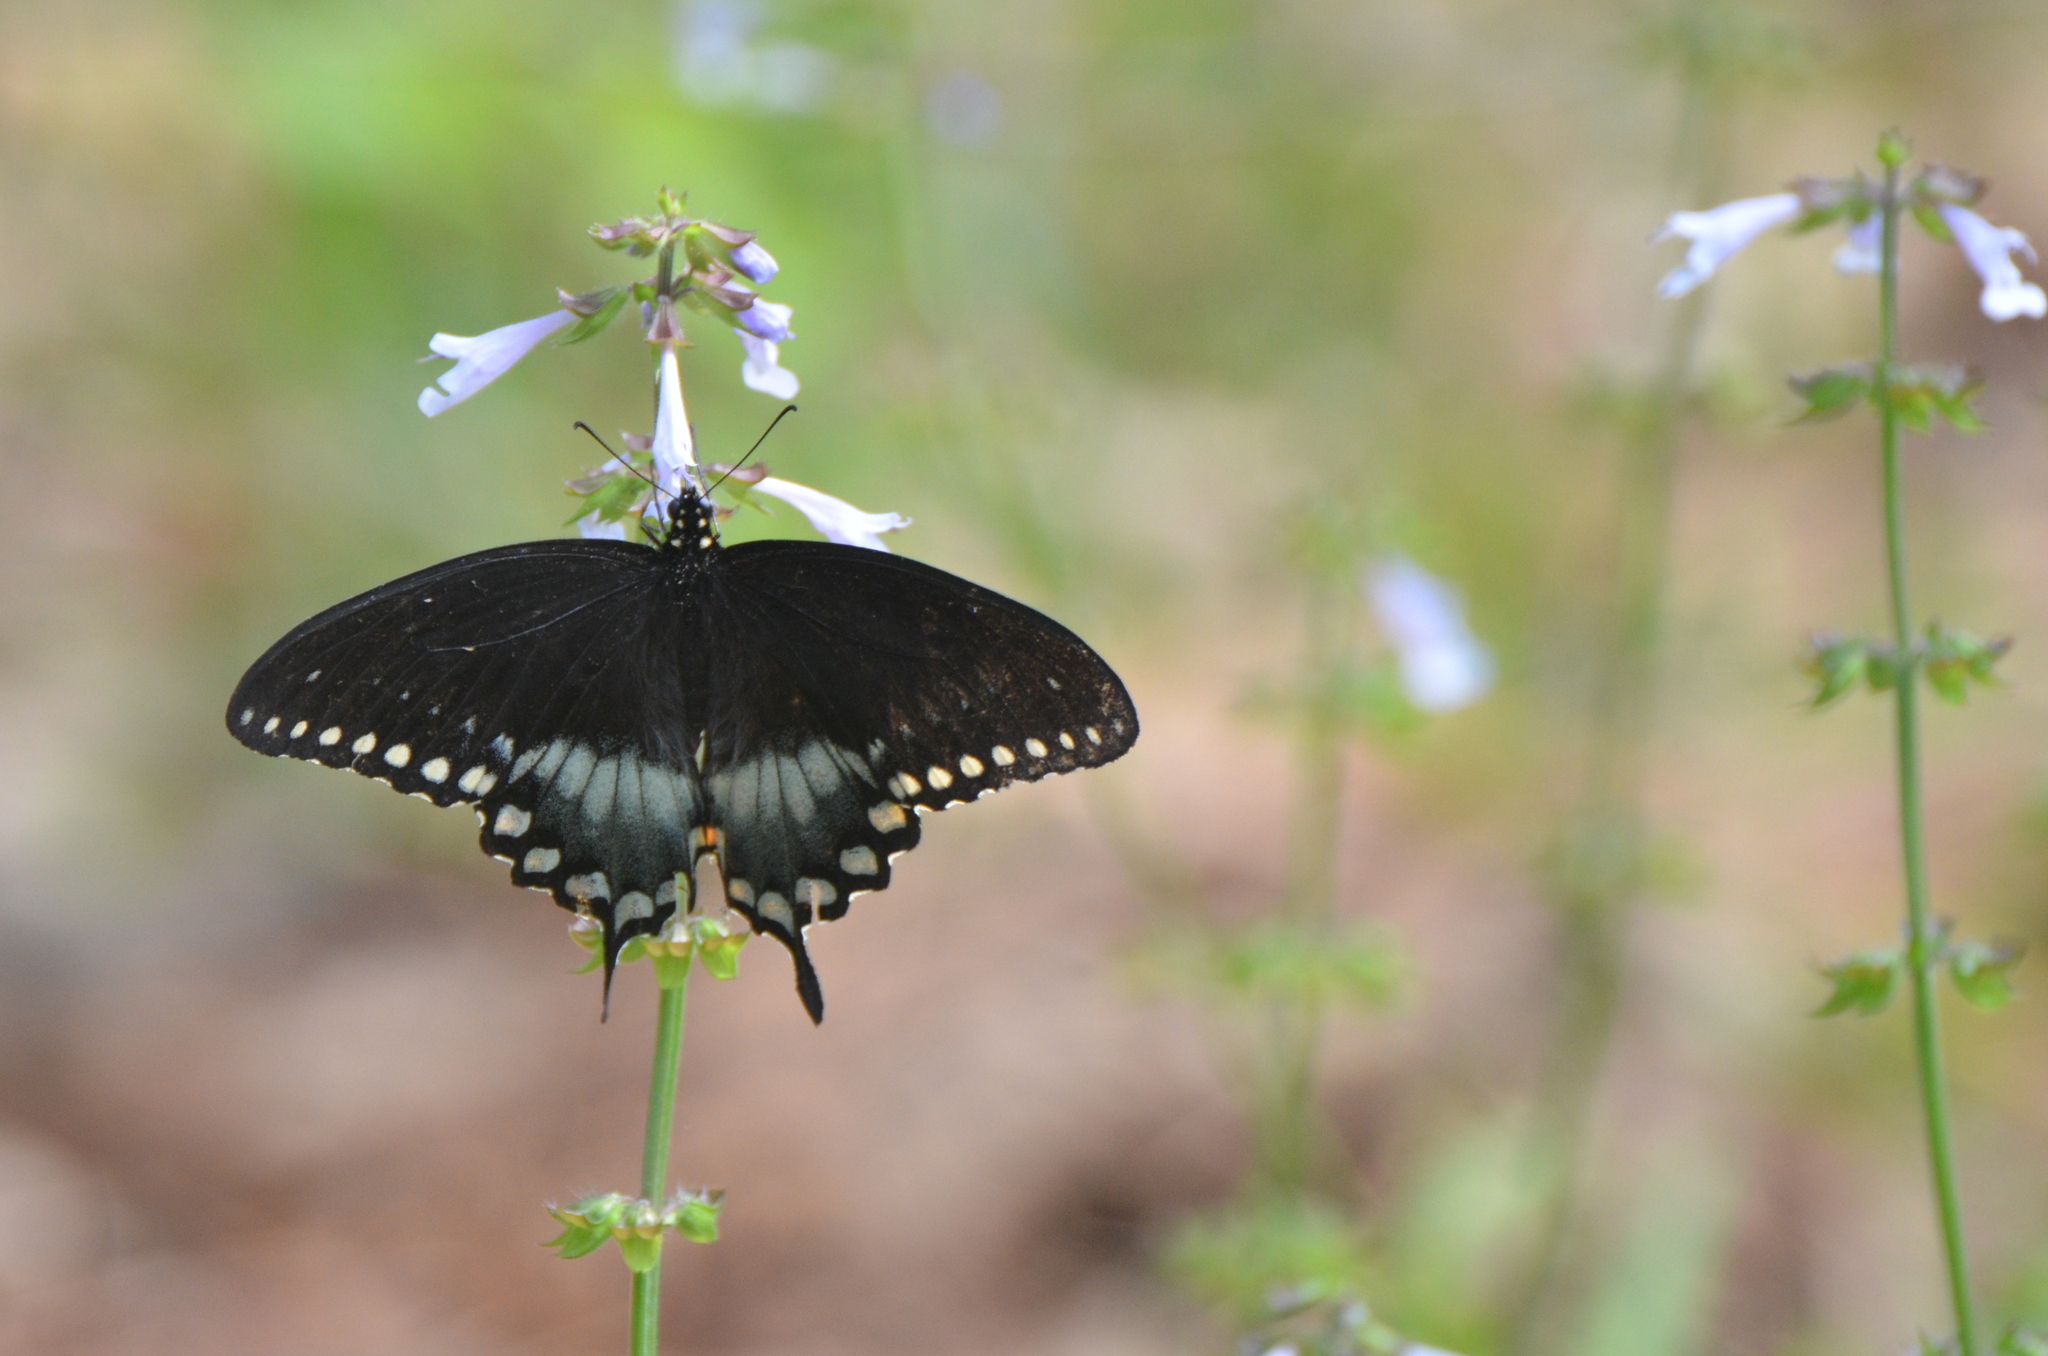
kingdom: Animalia
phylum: Arthropoda
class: Insecta
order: Lepidoptera
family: Papilionidae
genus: Papilio
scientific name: Papilio troilus
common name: Spicebush swallowtail
